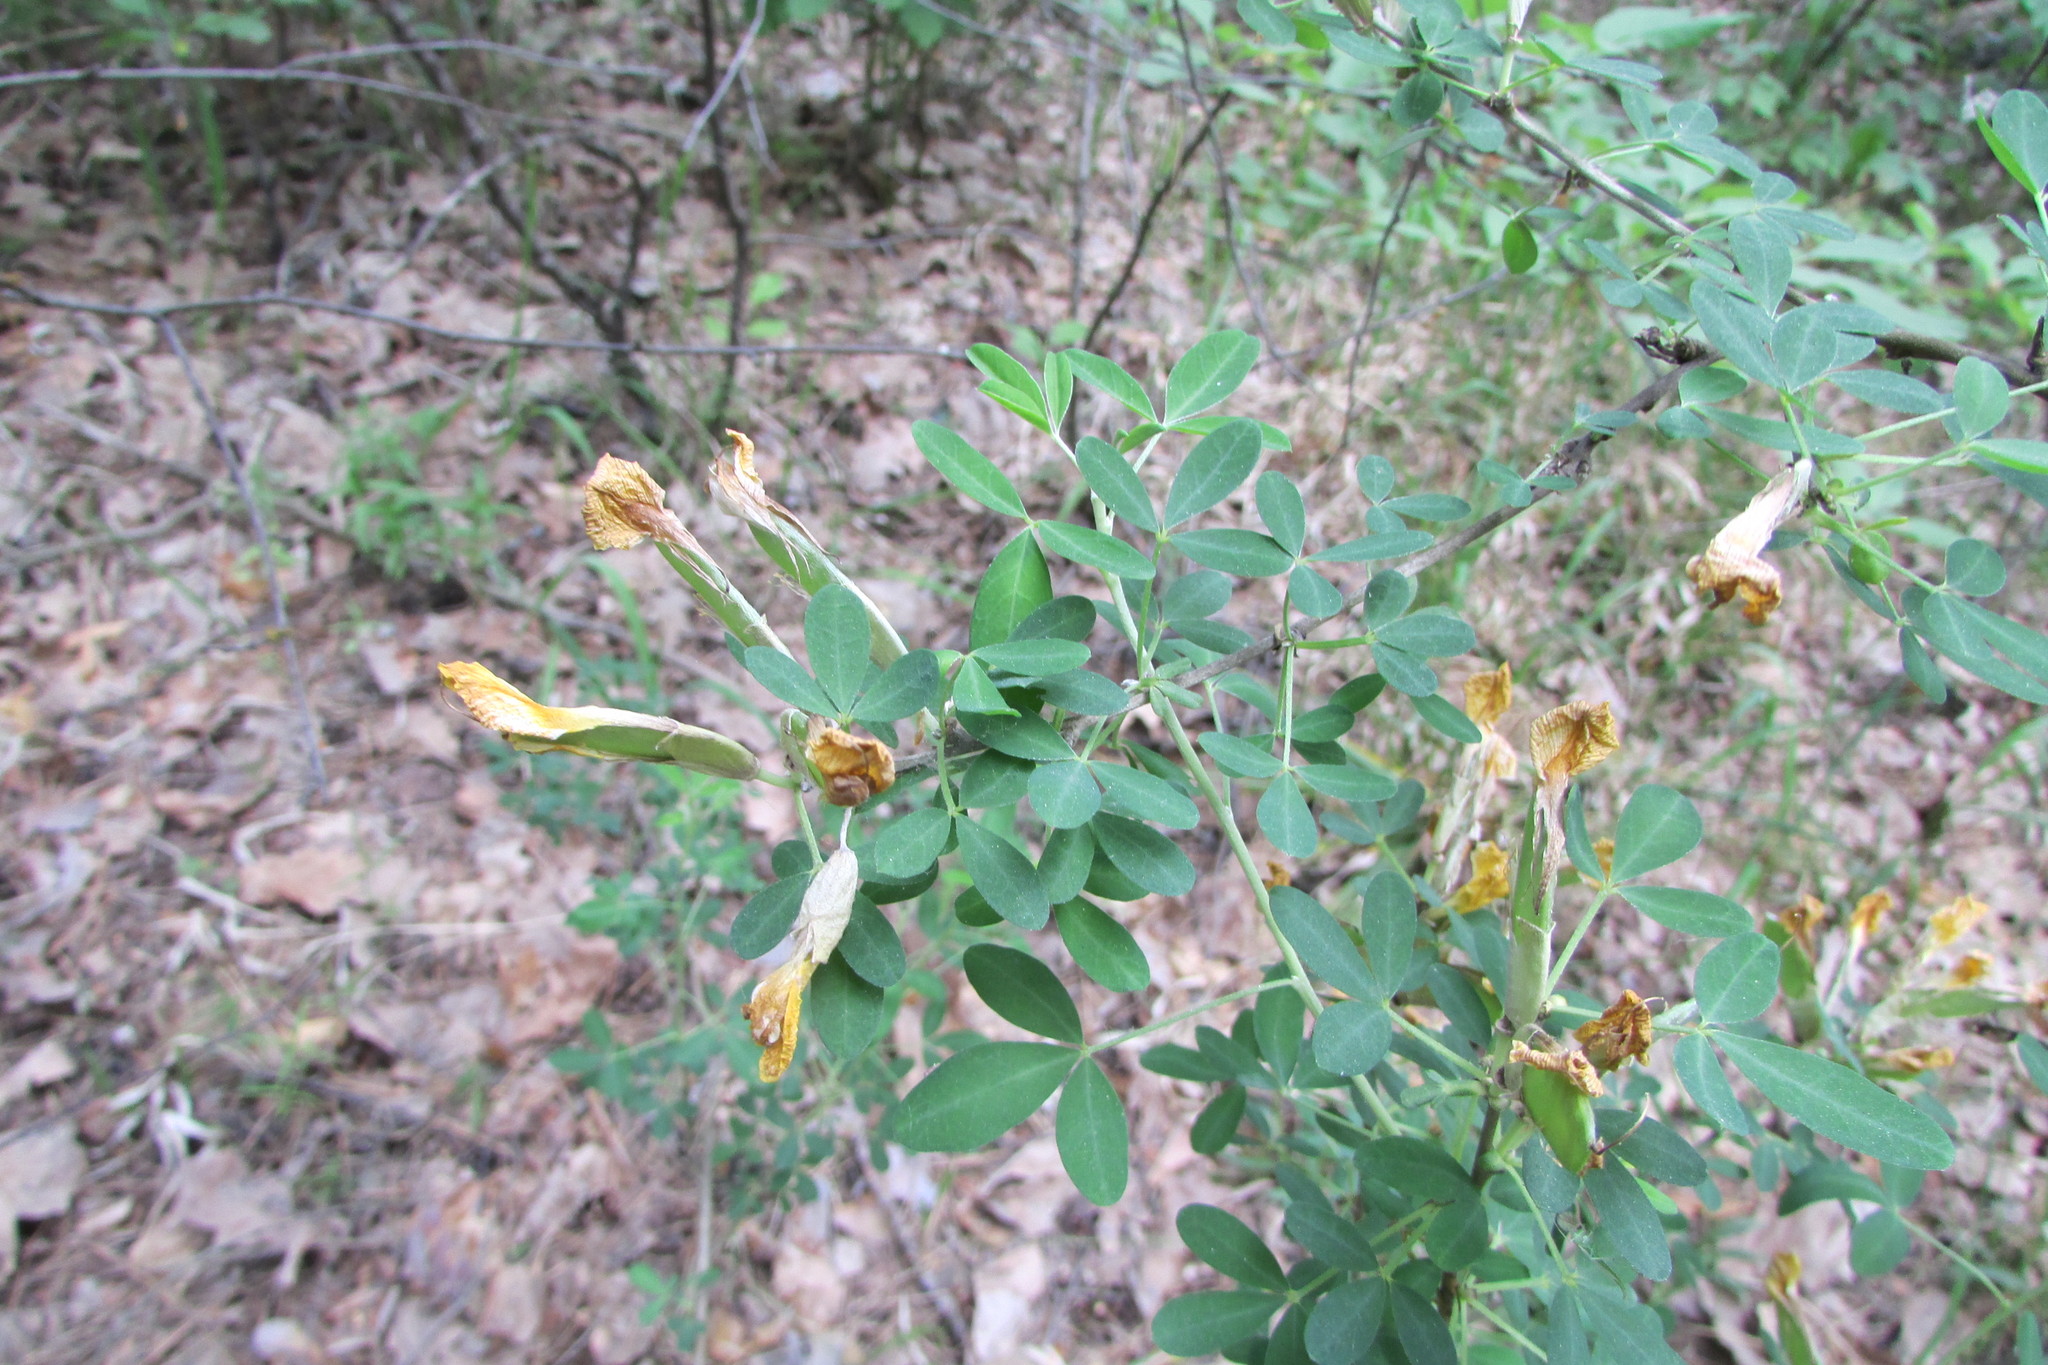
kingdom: Plantae
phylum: Tracheophyta
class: Magnoliopsida
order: Fabales
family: Fabaceae
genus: Chamaecytisus
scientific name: Chamaecytisus ruthenicus
